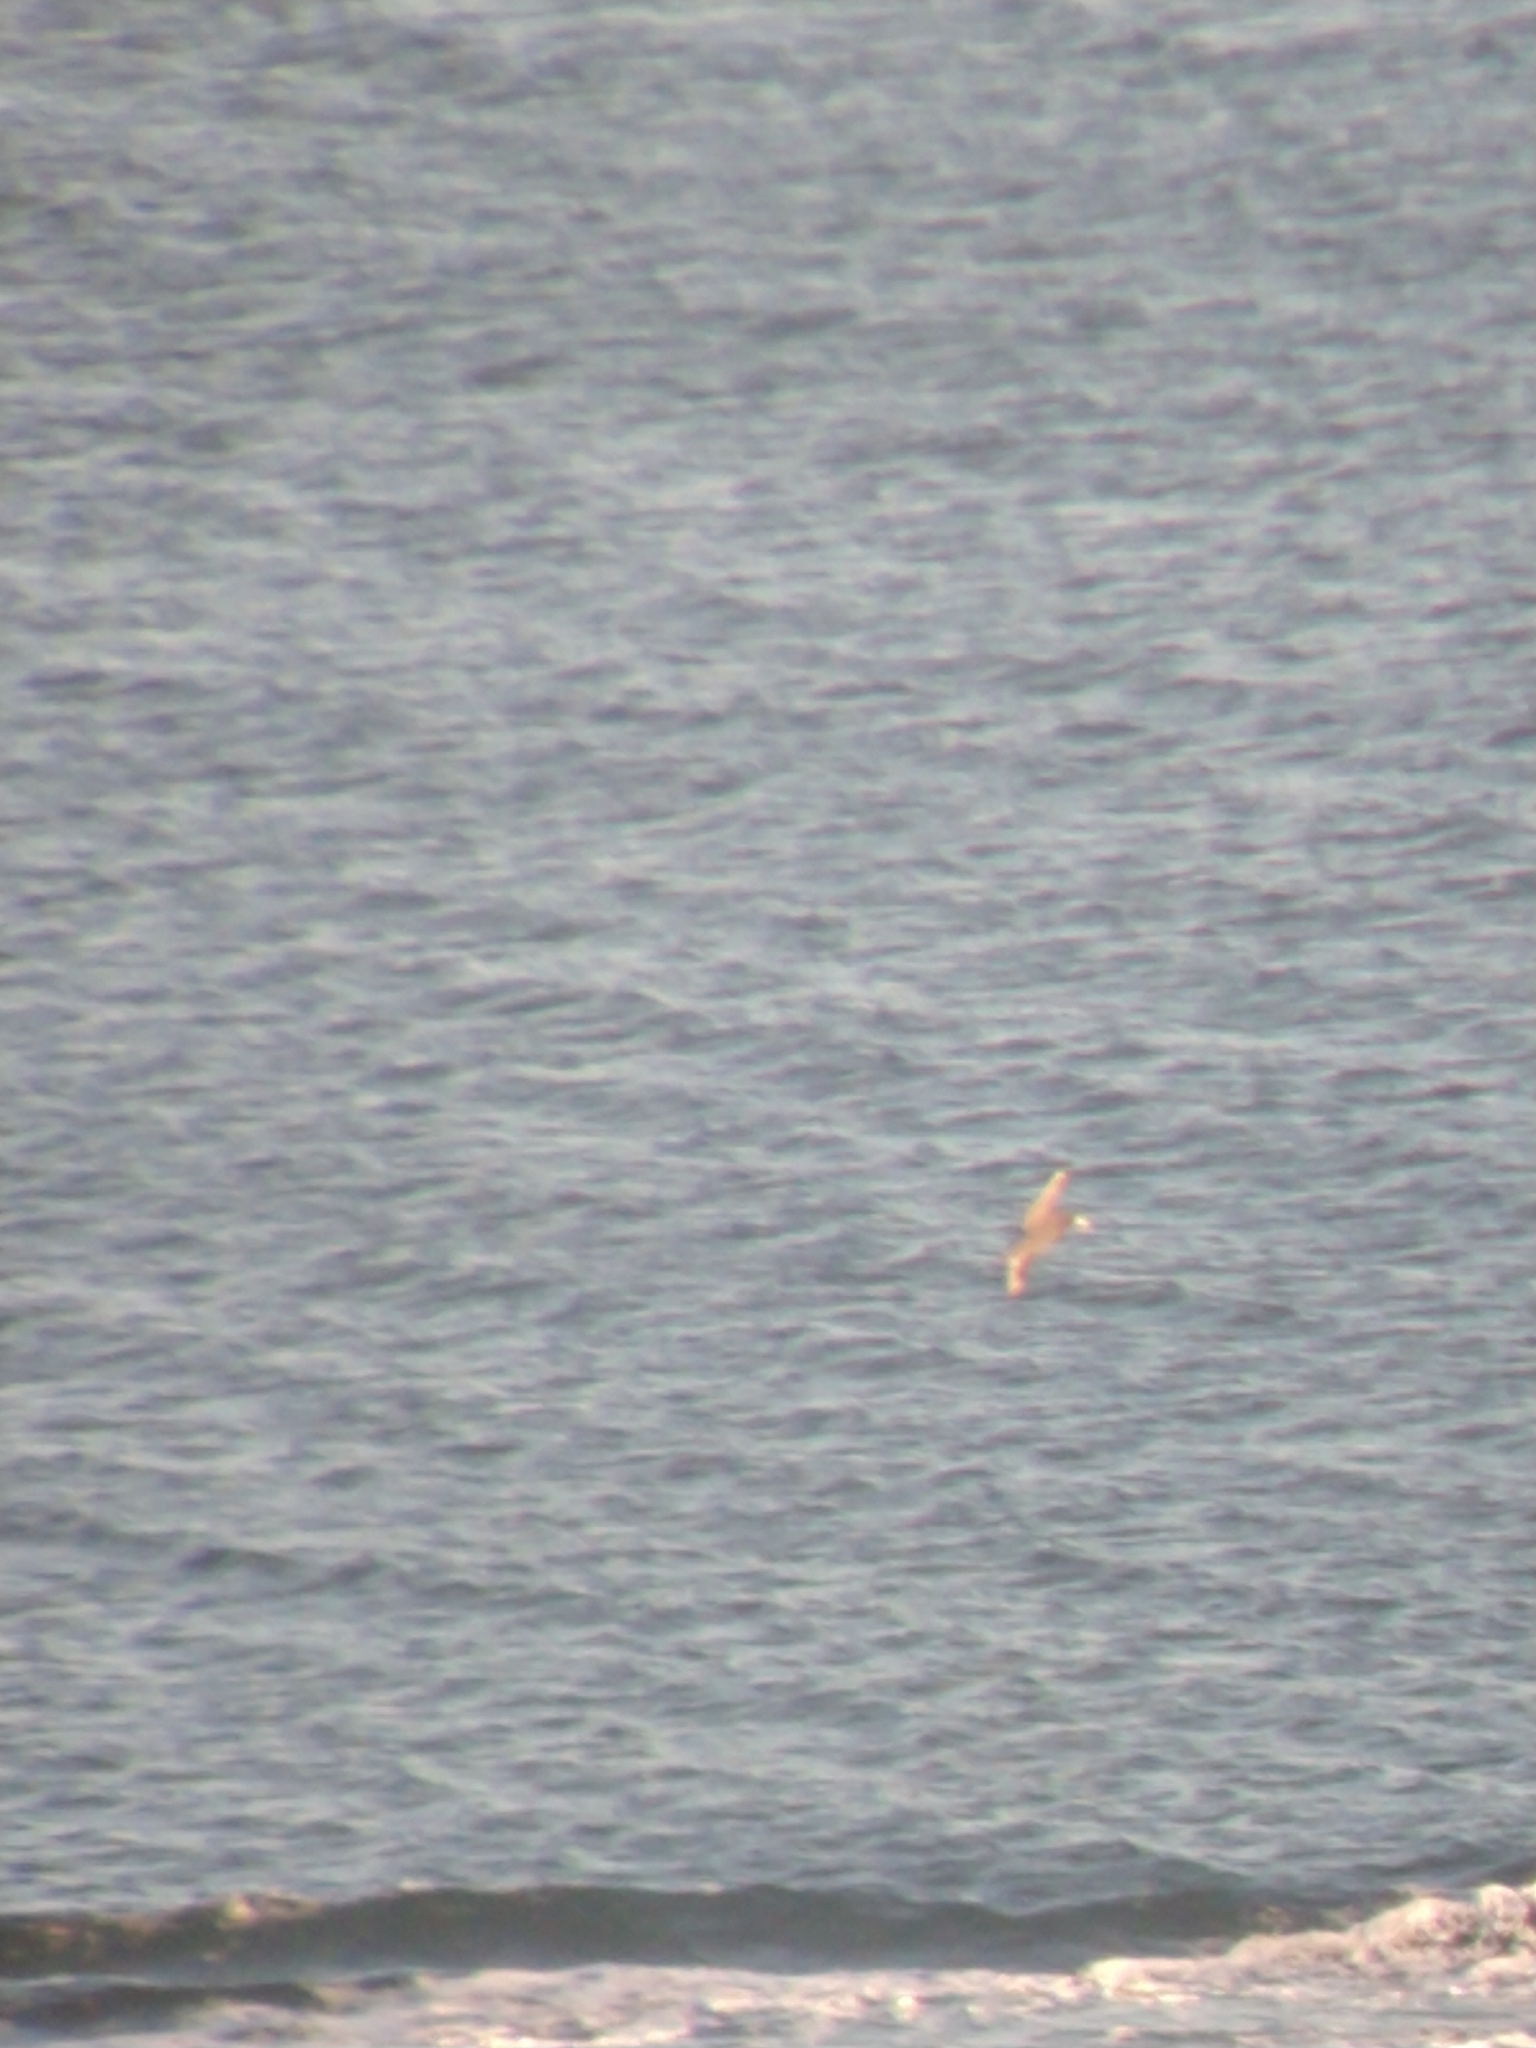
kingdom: Animalia
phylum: Chordata
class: Aves
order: Procellariiformes
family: Procellariidae
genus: Macronectes
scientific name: Macronectes
